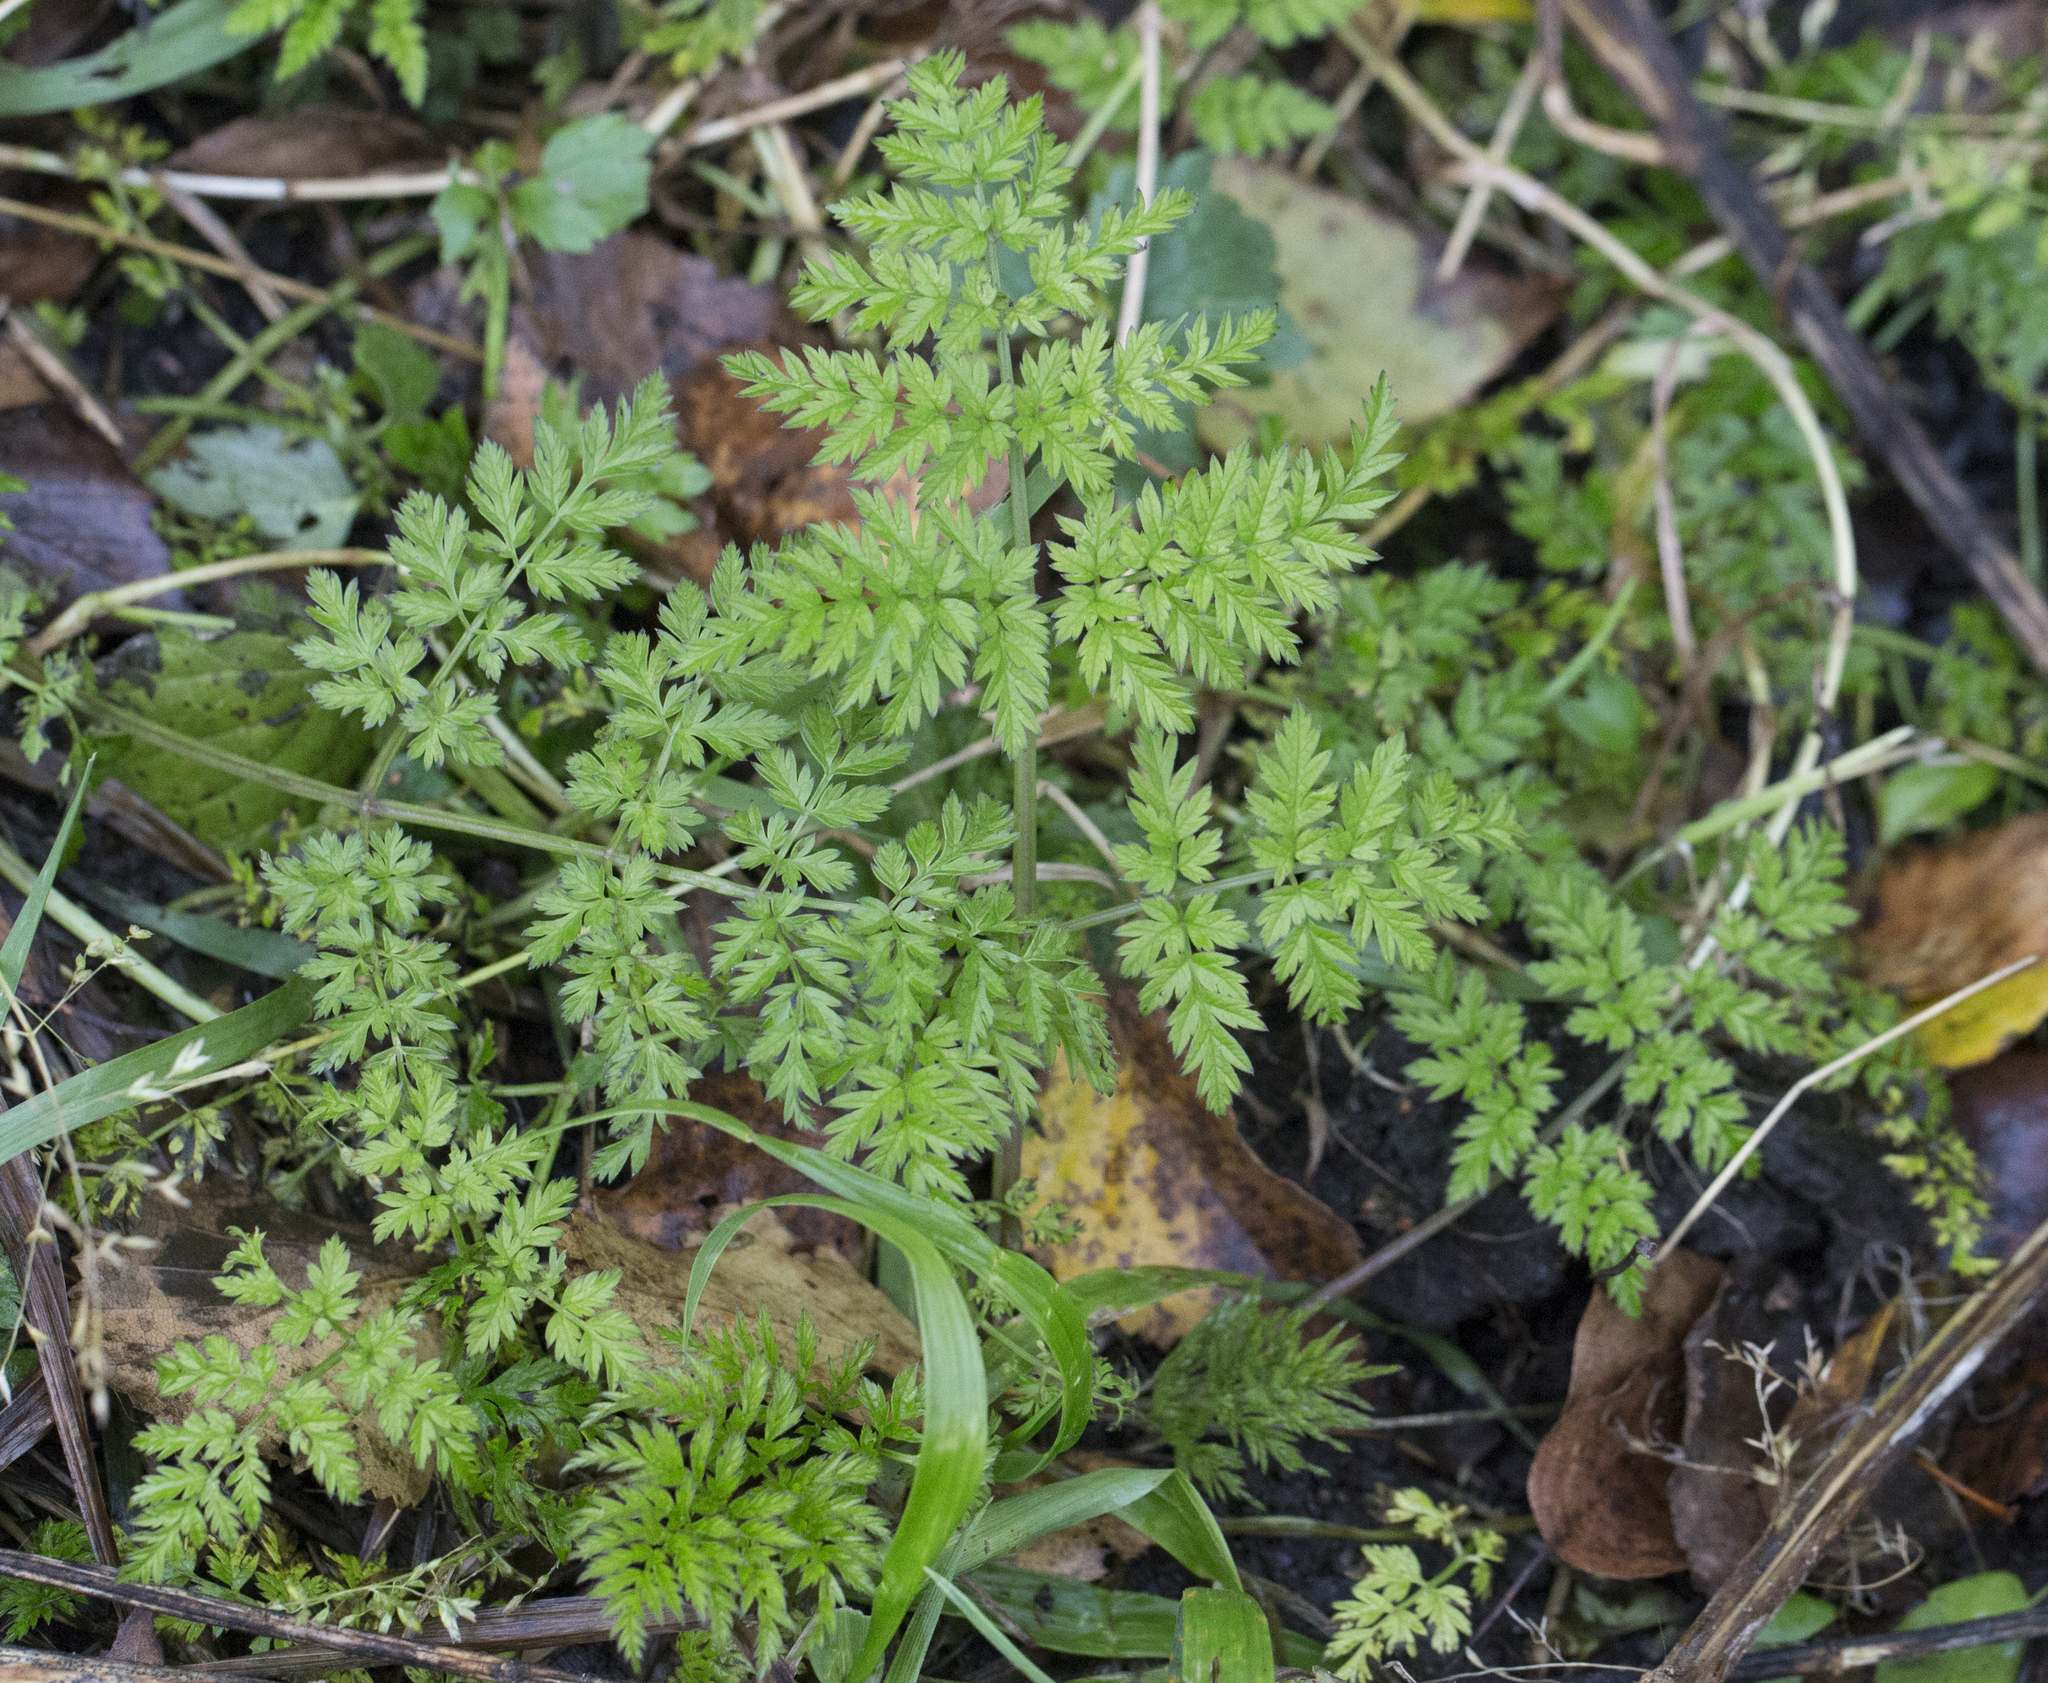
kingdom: Plantae
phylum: Tracheophyta
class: Magnoliopsida
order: Apiales
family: Apiaceae
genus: Anthriscus
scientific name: Anthriscus sylvestris
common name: Cow parsley
